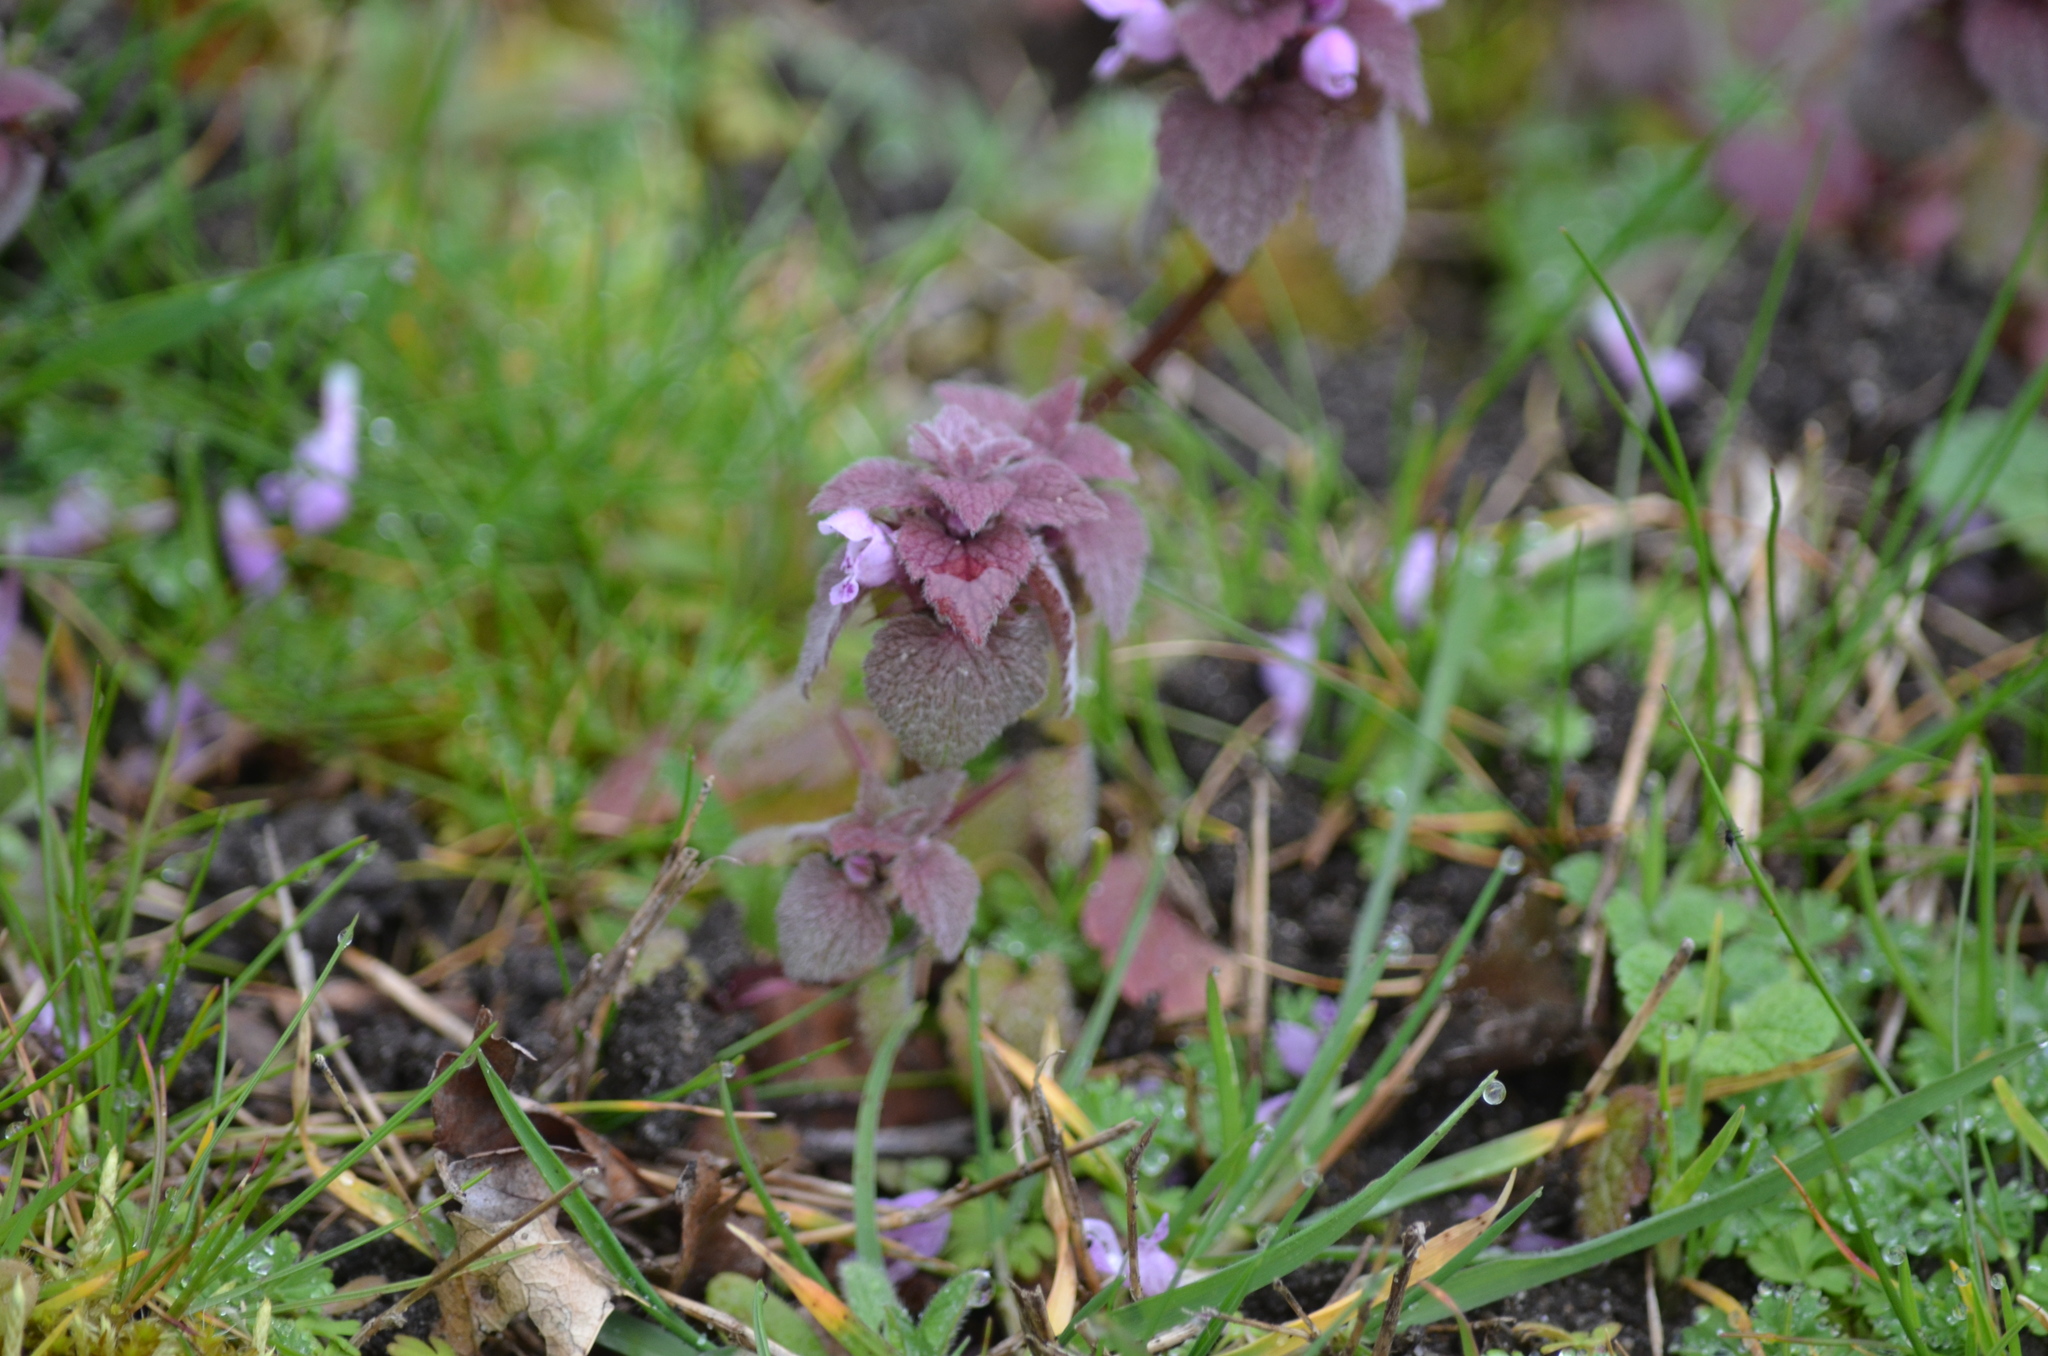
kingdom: Plantae
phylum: Tracheophyta
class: Magnoliopsida
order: Lamiales
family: Lamiaceae
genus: Lamium
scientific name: Lamium purpureum
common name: Red dead-nettle
